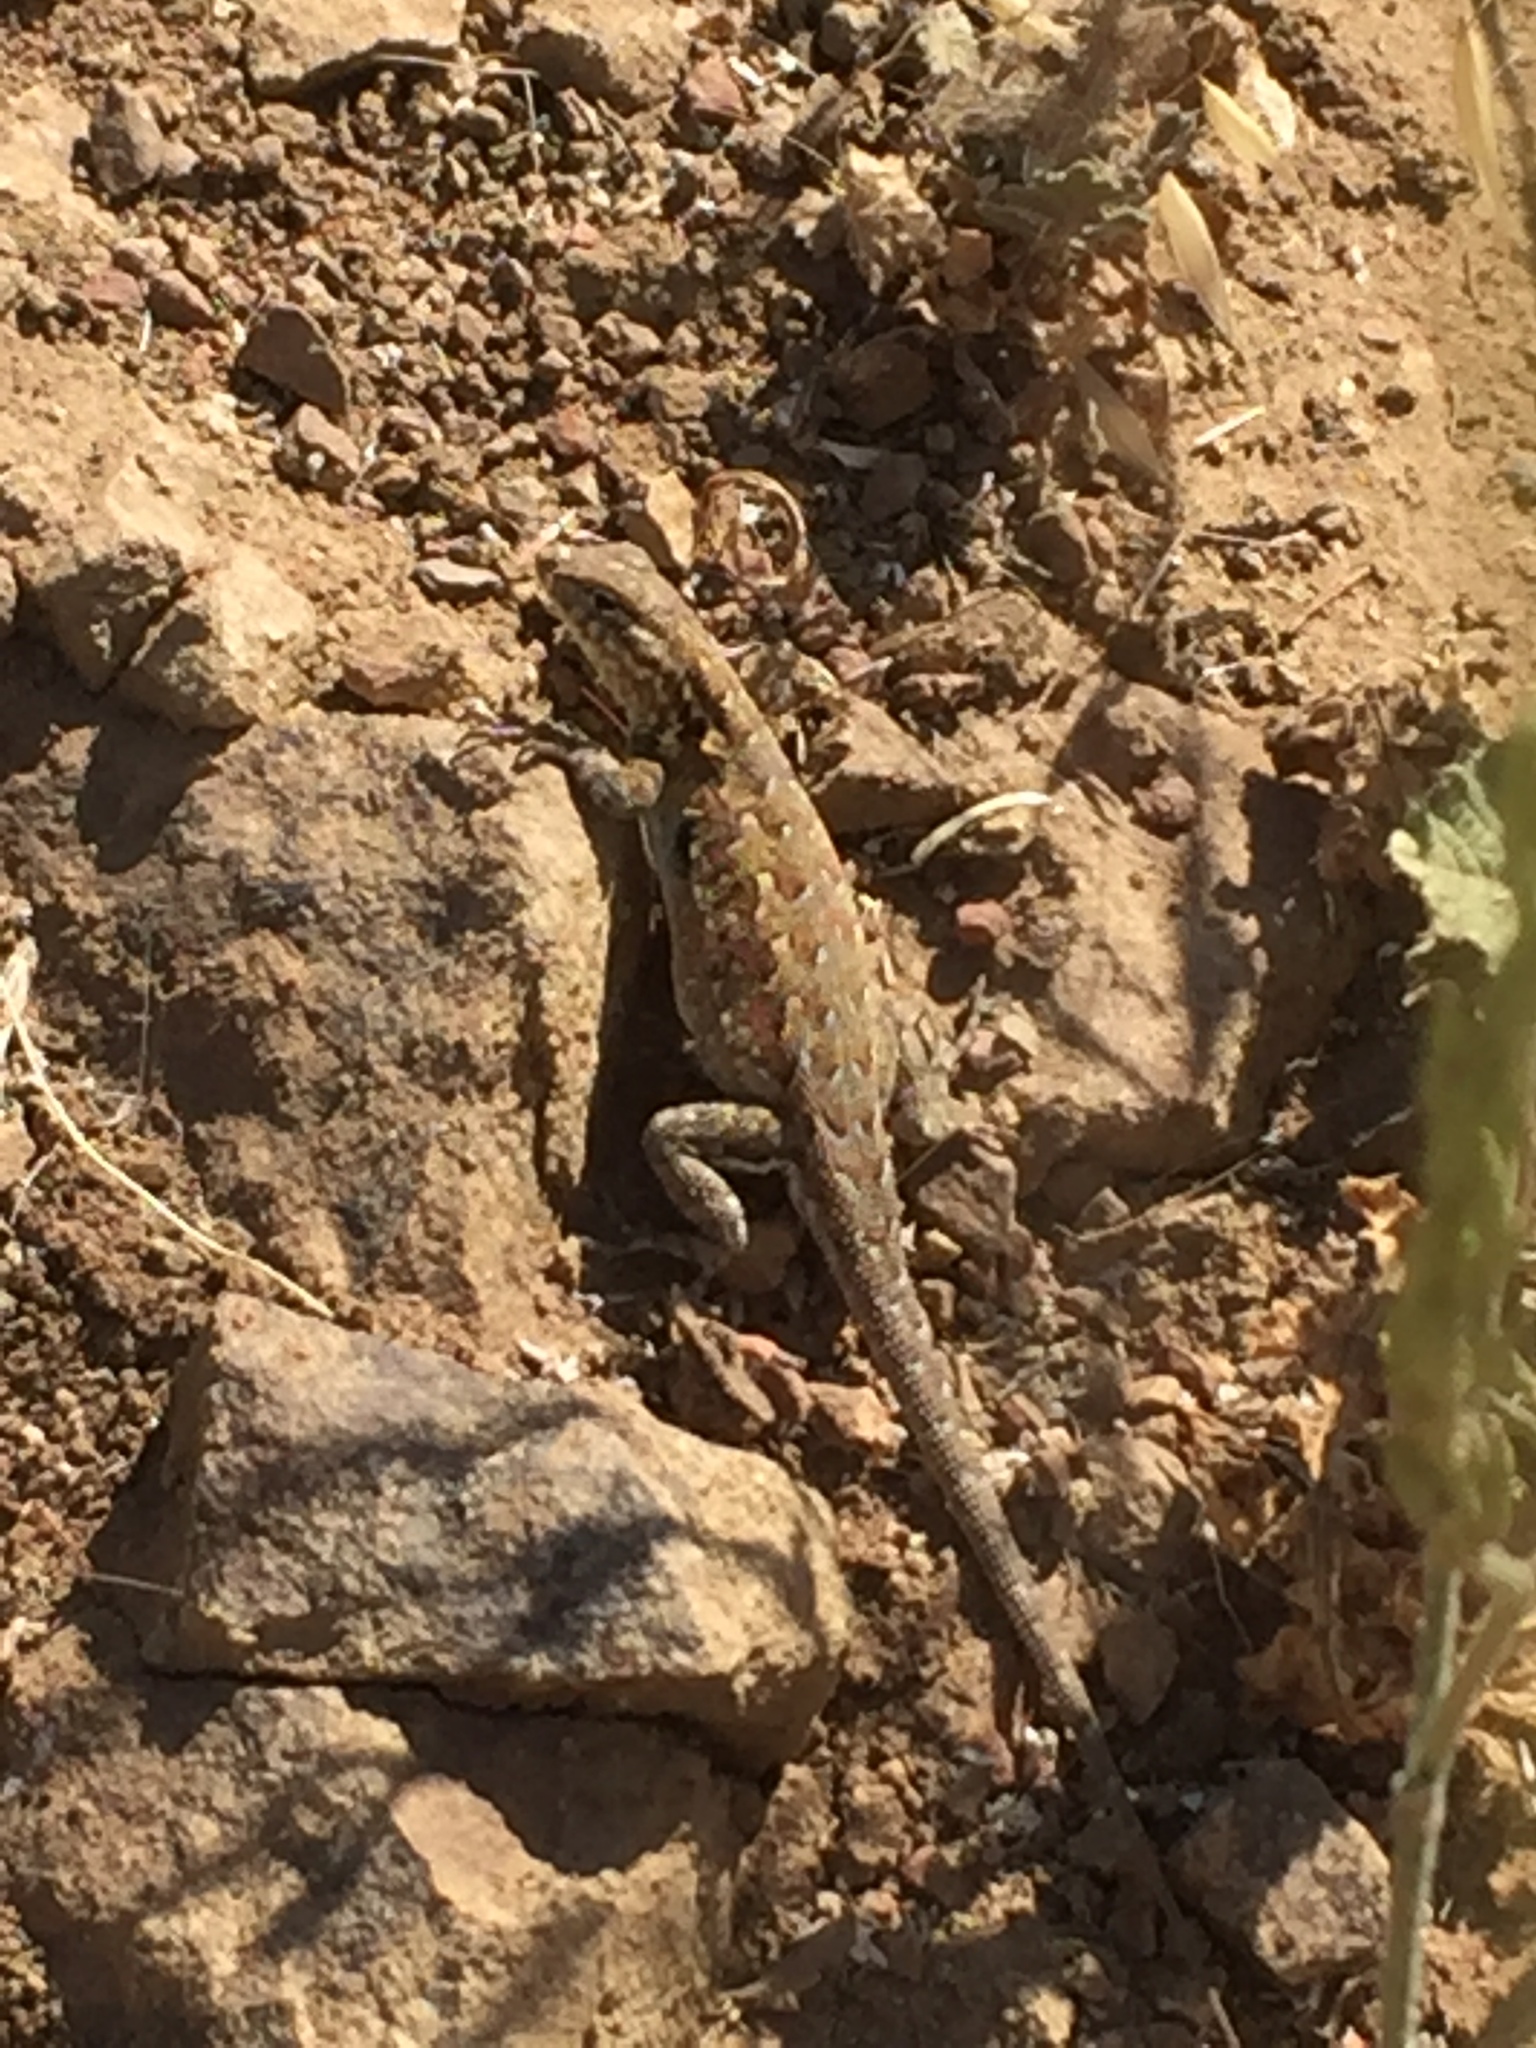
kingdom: Animalia
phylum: Chordata
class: Squamata
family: Phrynosomatidae
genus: Uta
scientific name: Uta stansburiana
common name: Side-blotched lizard
